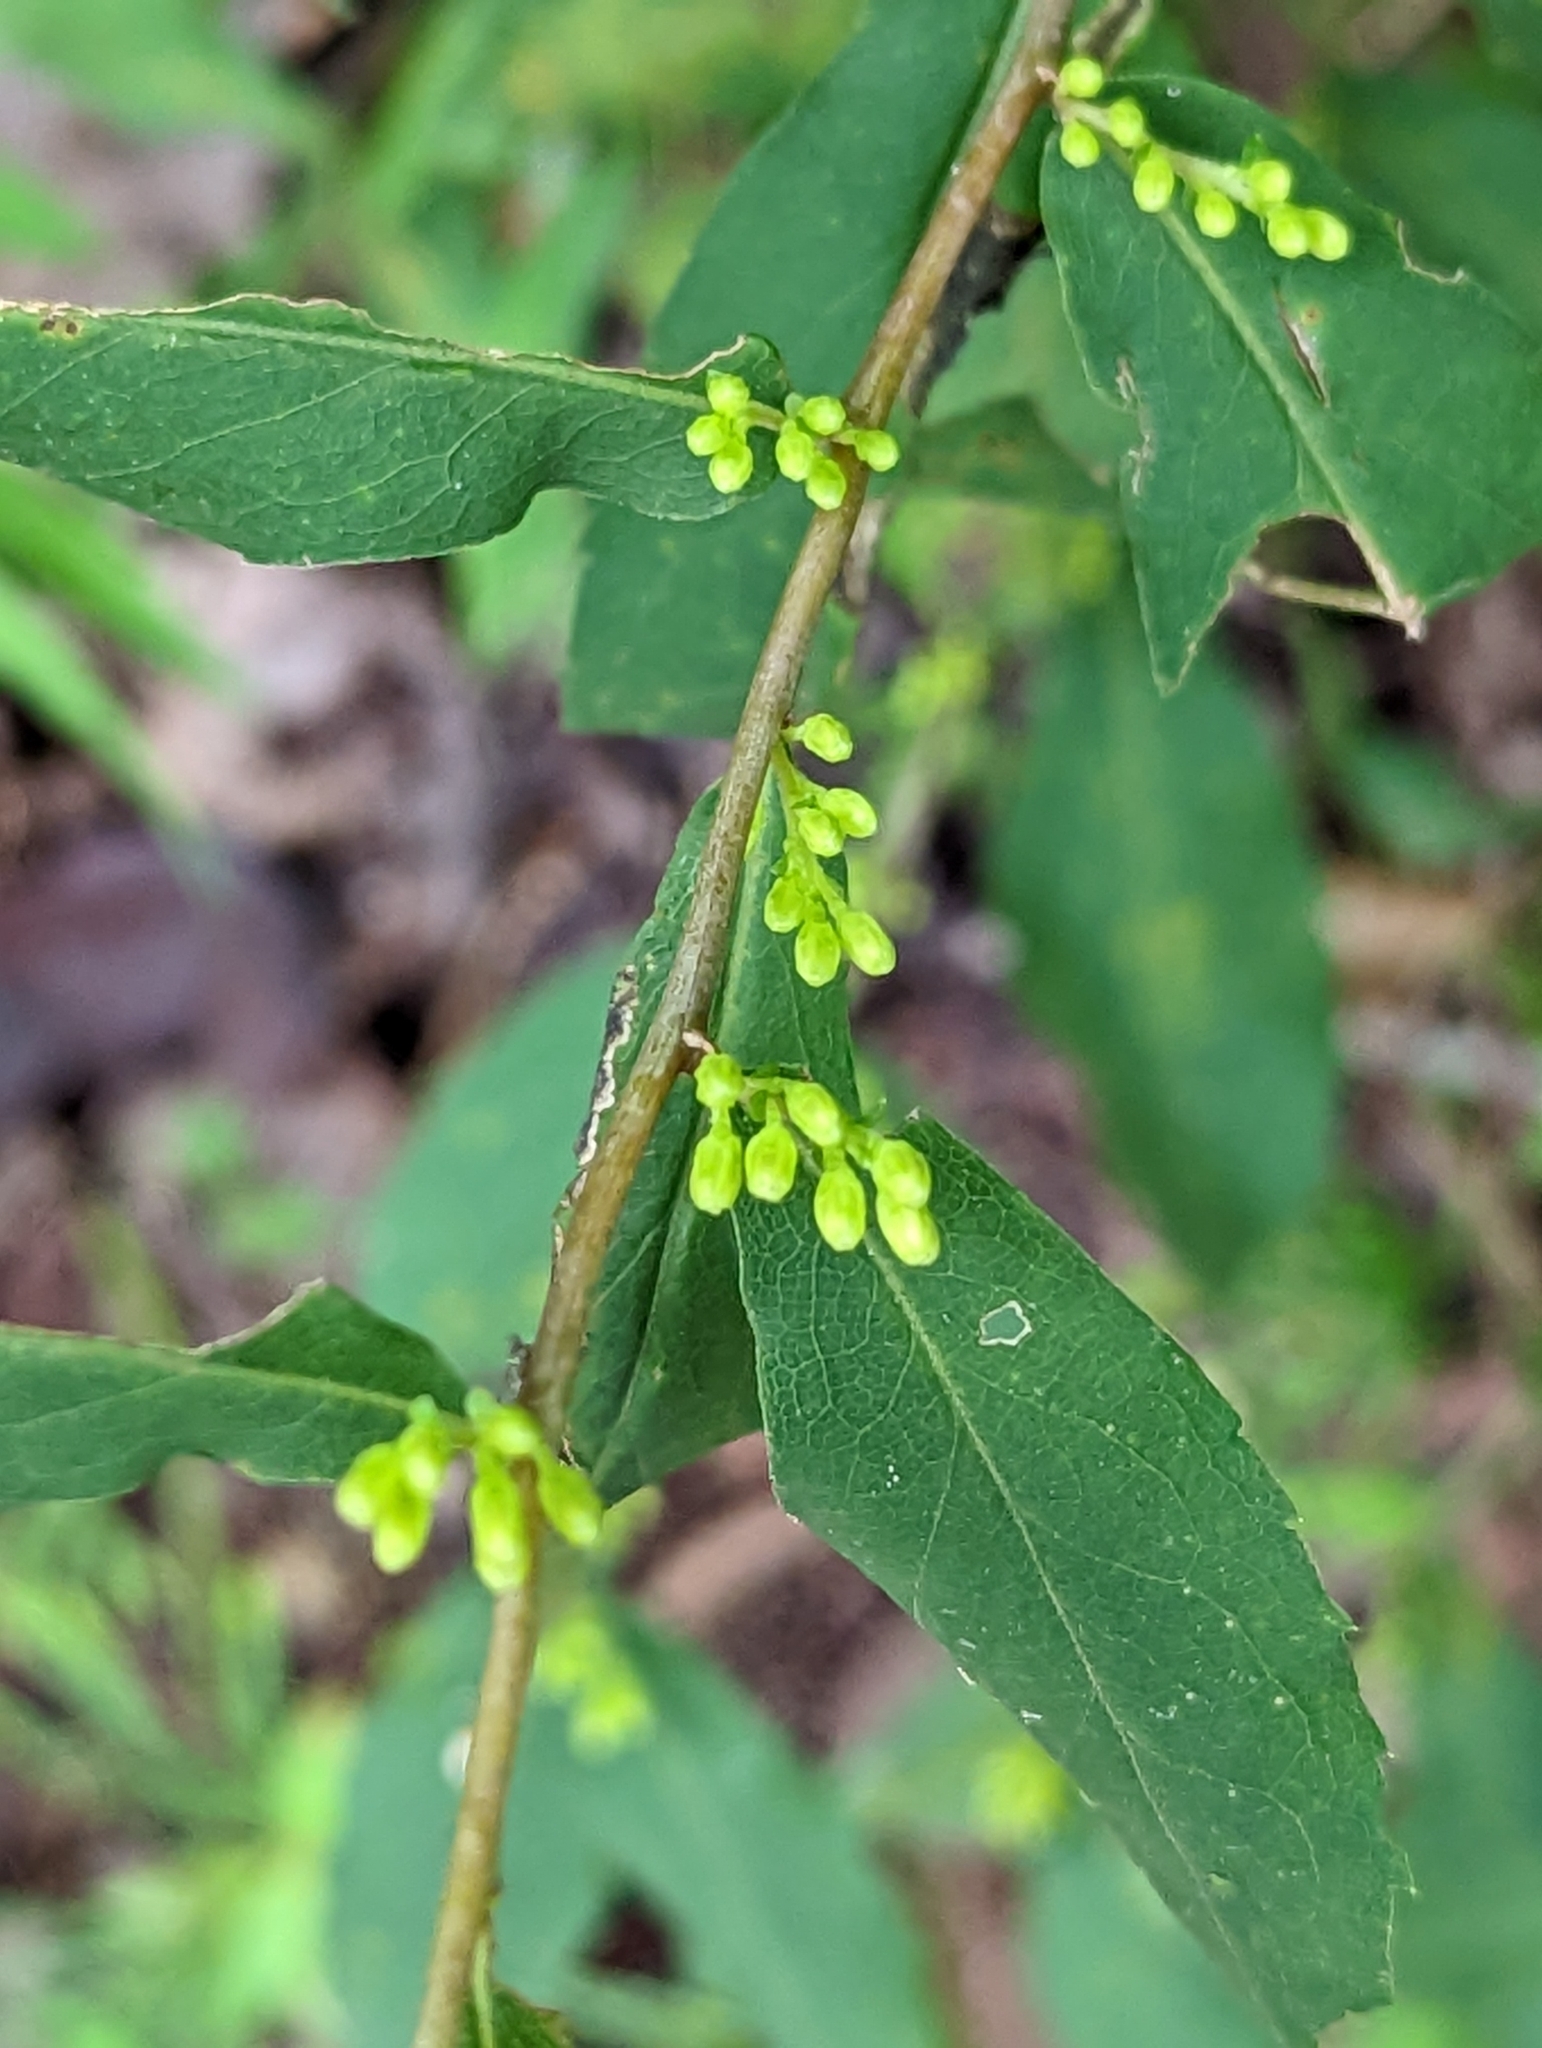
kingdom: Plantae
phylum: Tracheophyta
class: Magnoliopsida
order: Asterales
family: Asteraceae
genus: Solidago
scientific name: Solidago caesia
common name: Woodland goldenrod
